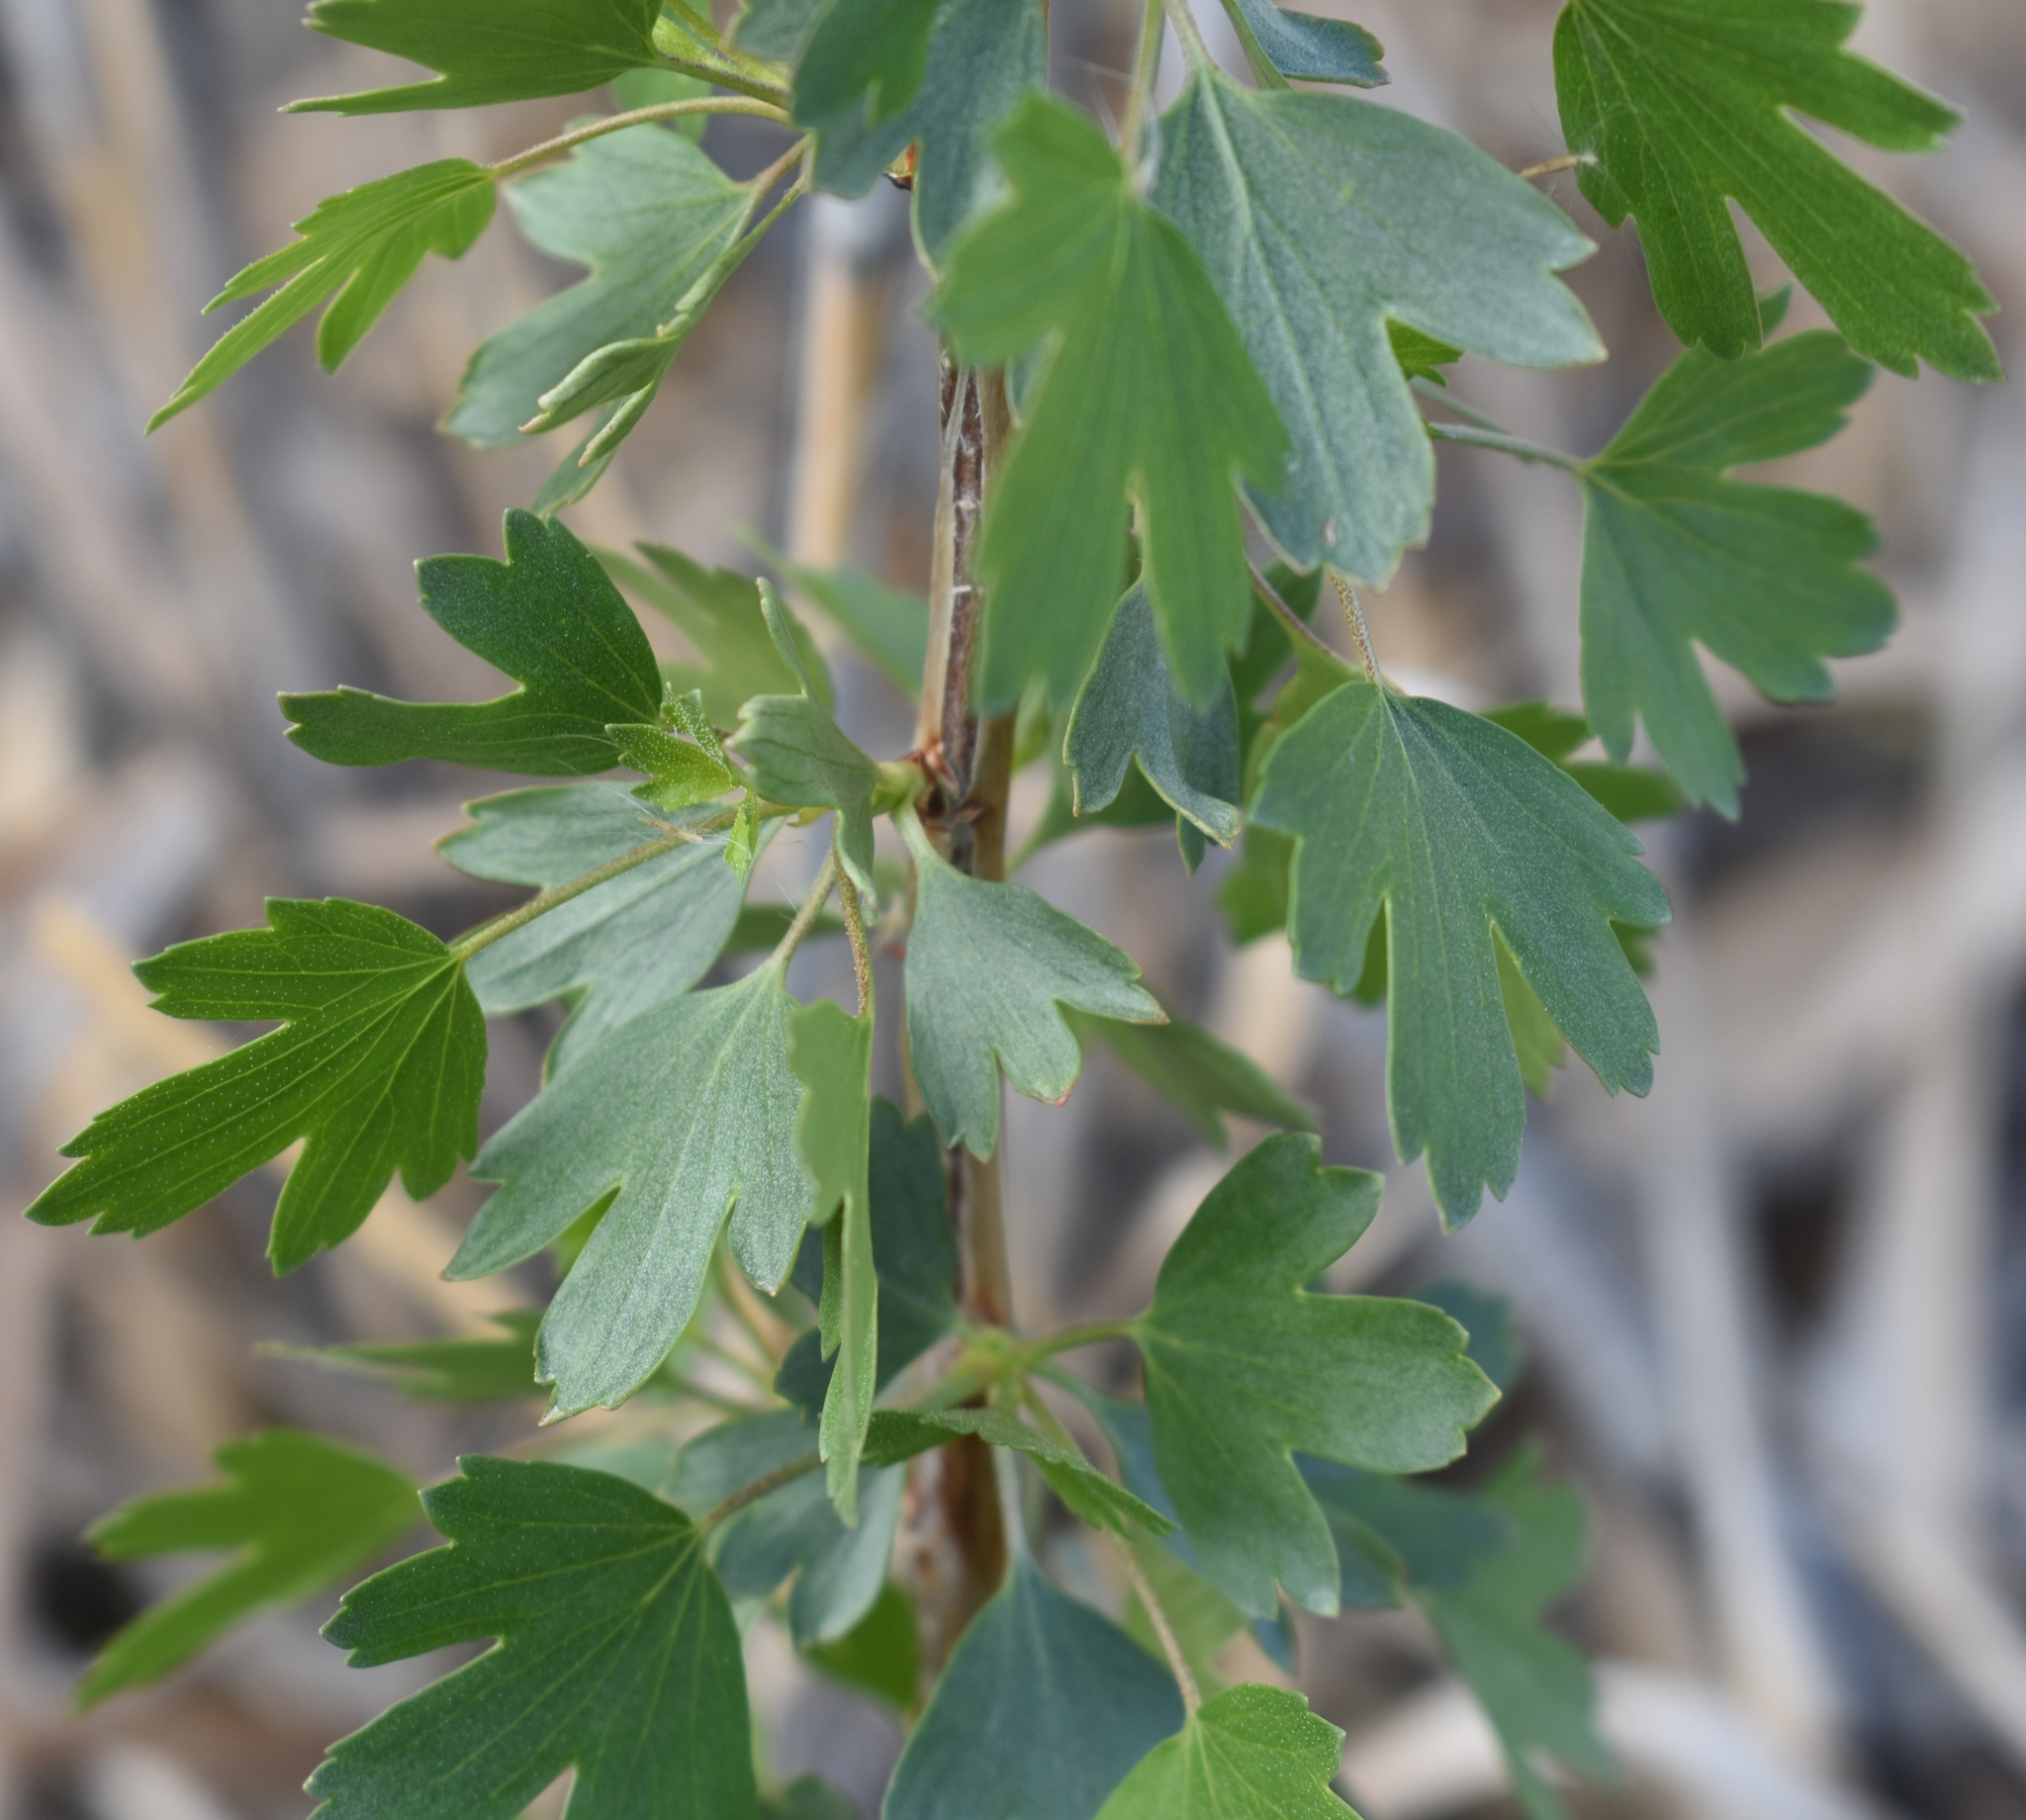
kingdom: Plantae
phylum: Tracheophyta
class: Magnoliopsida
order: Saxifragales
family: Grossulariaceae
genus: Ribes
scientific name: Ribes aureum
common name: Golden currant
